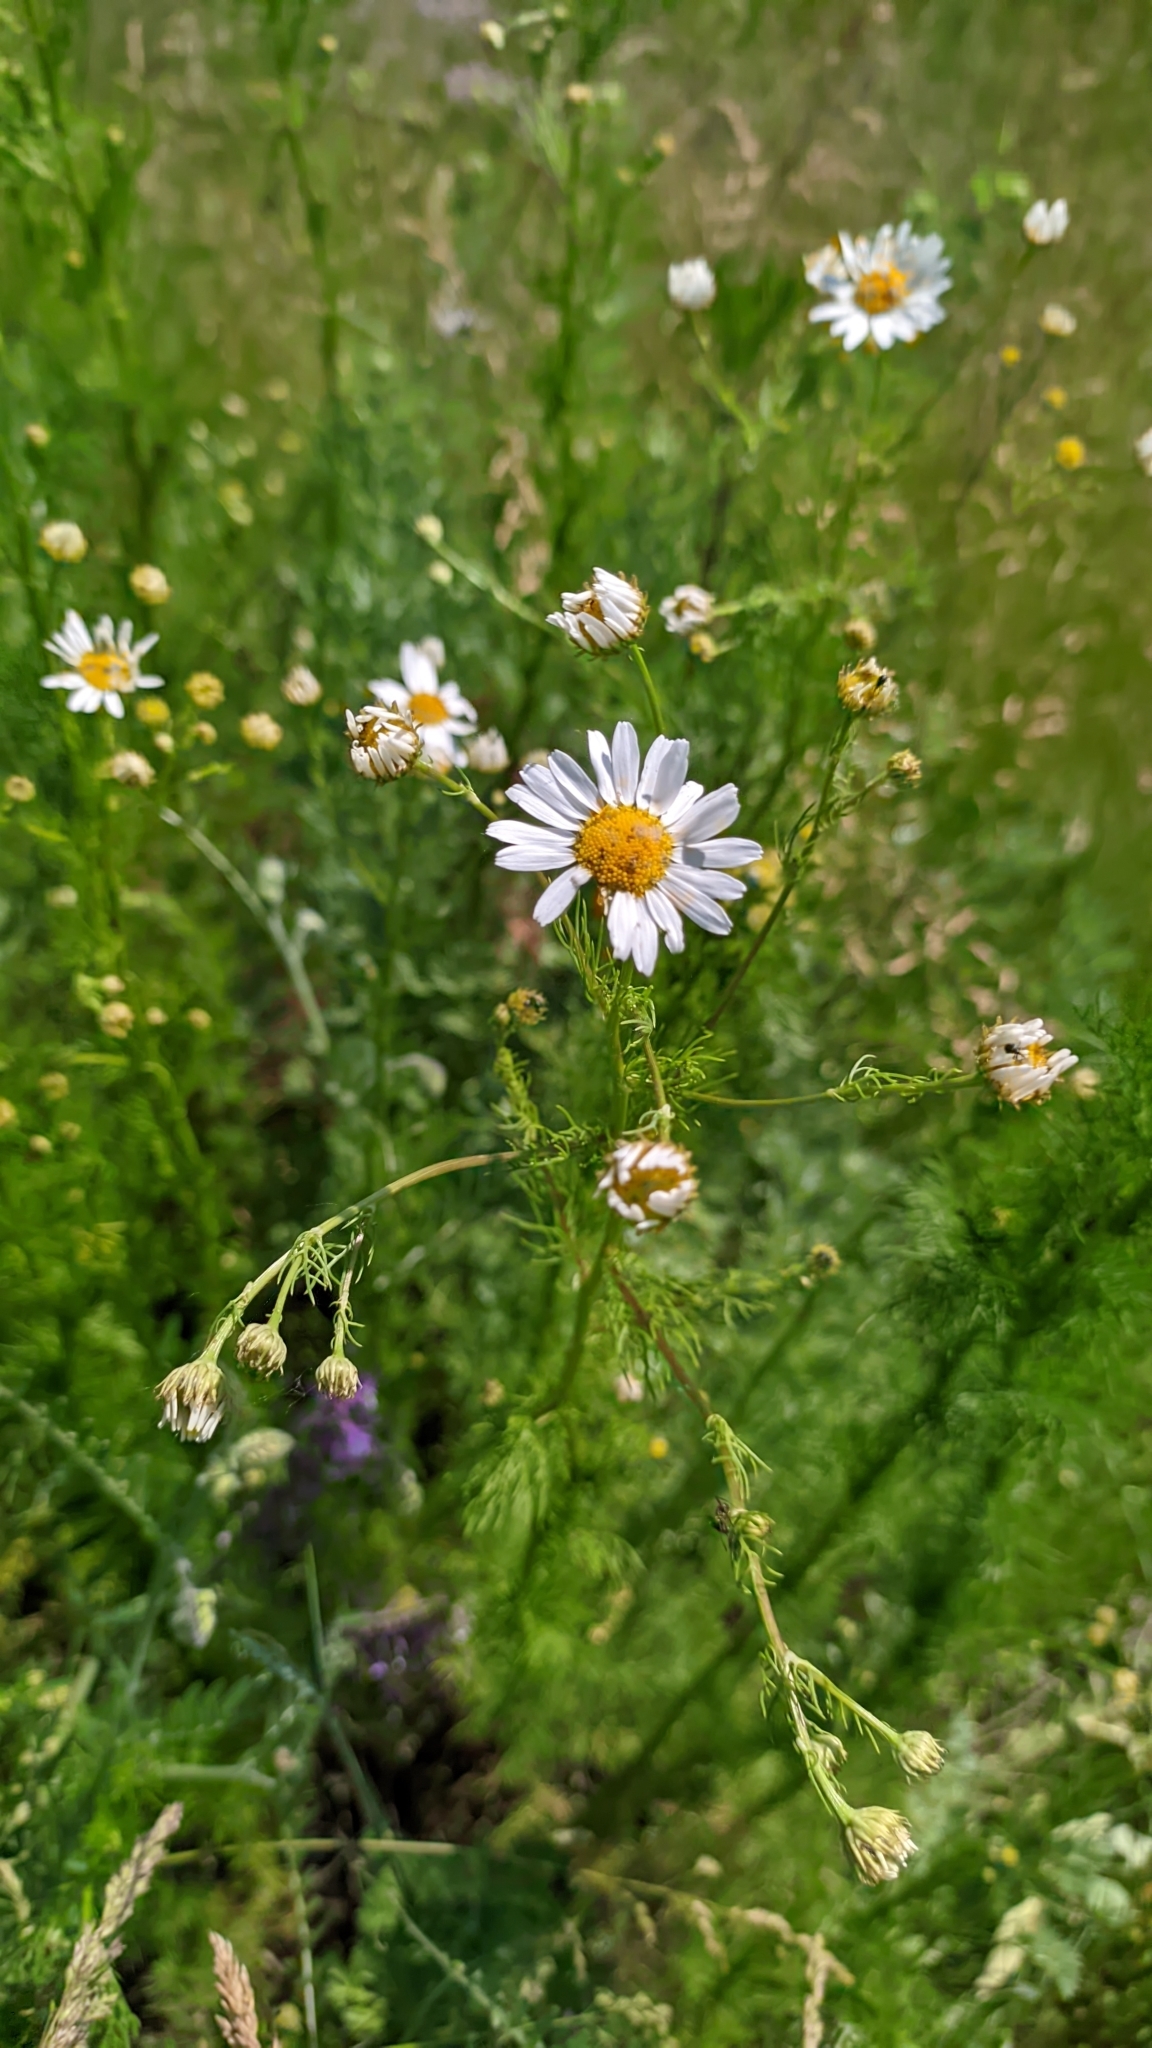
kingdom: Plantae
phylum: Tracheophyta
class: Magnoliopsida
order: Asterales
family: Asteraceae
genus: Tripleurospermum
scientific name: Tripleurospermum inodorum
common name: Scentless mayweed
